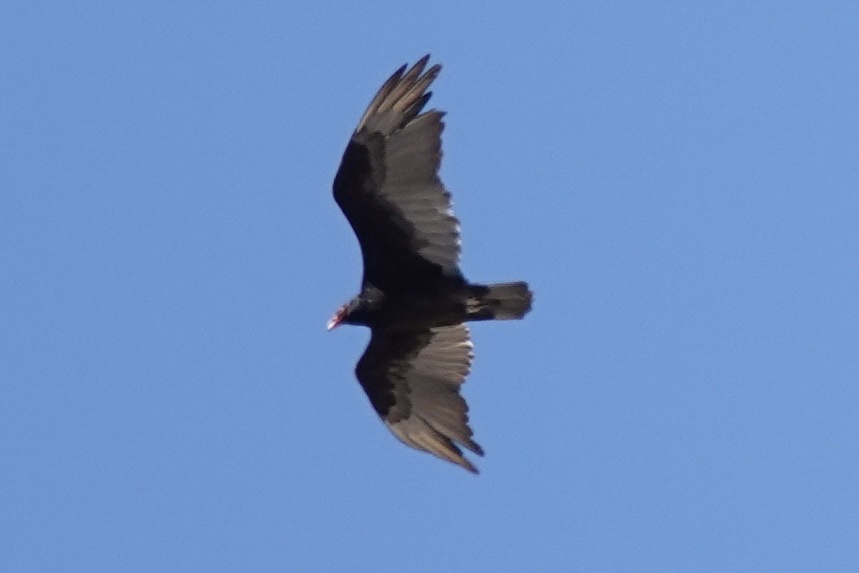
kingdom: Animalia
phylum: Chordata
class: Aves
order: Accipitriformes
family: Cathartidae
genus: Cathartes
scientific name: Cathartes aura
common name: Turkey vulture
